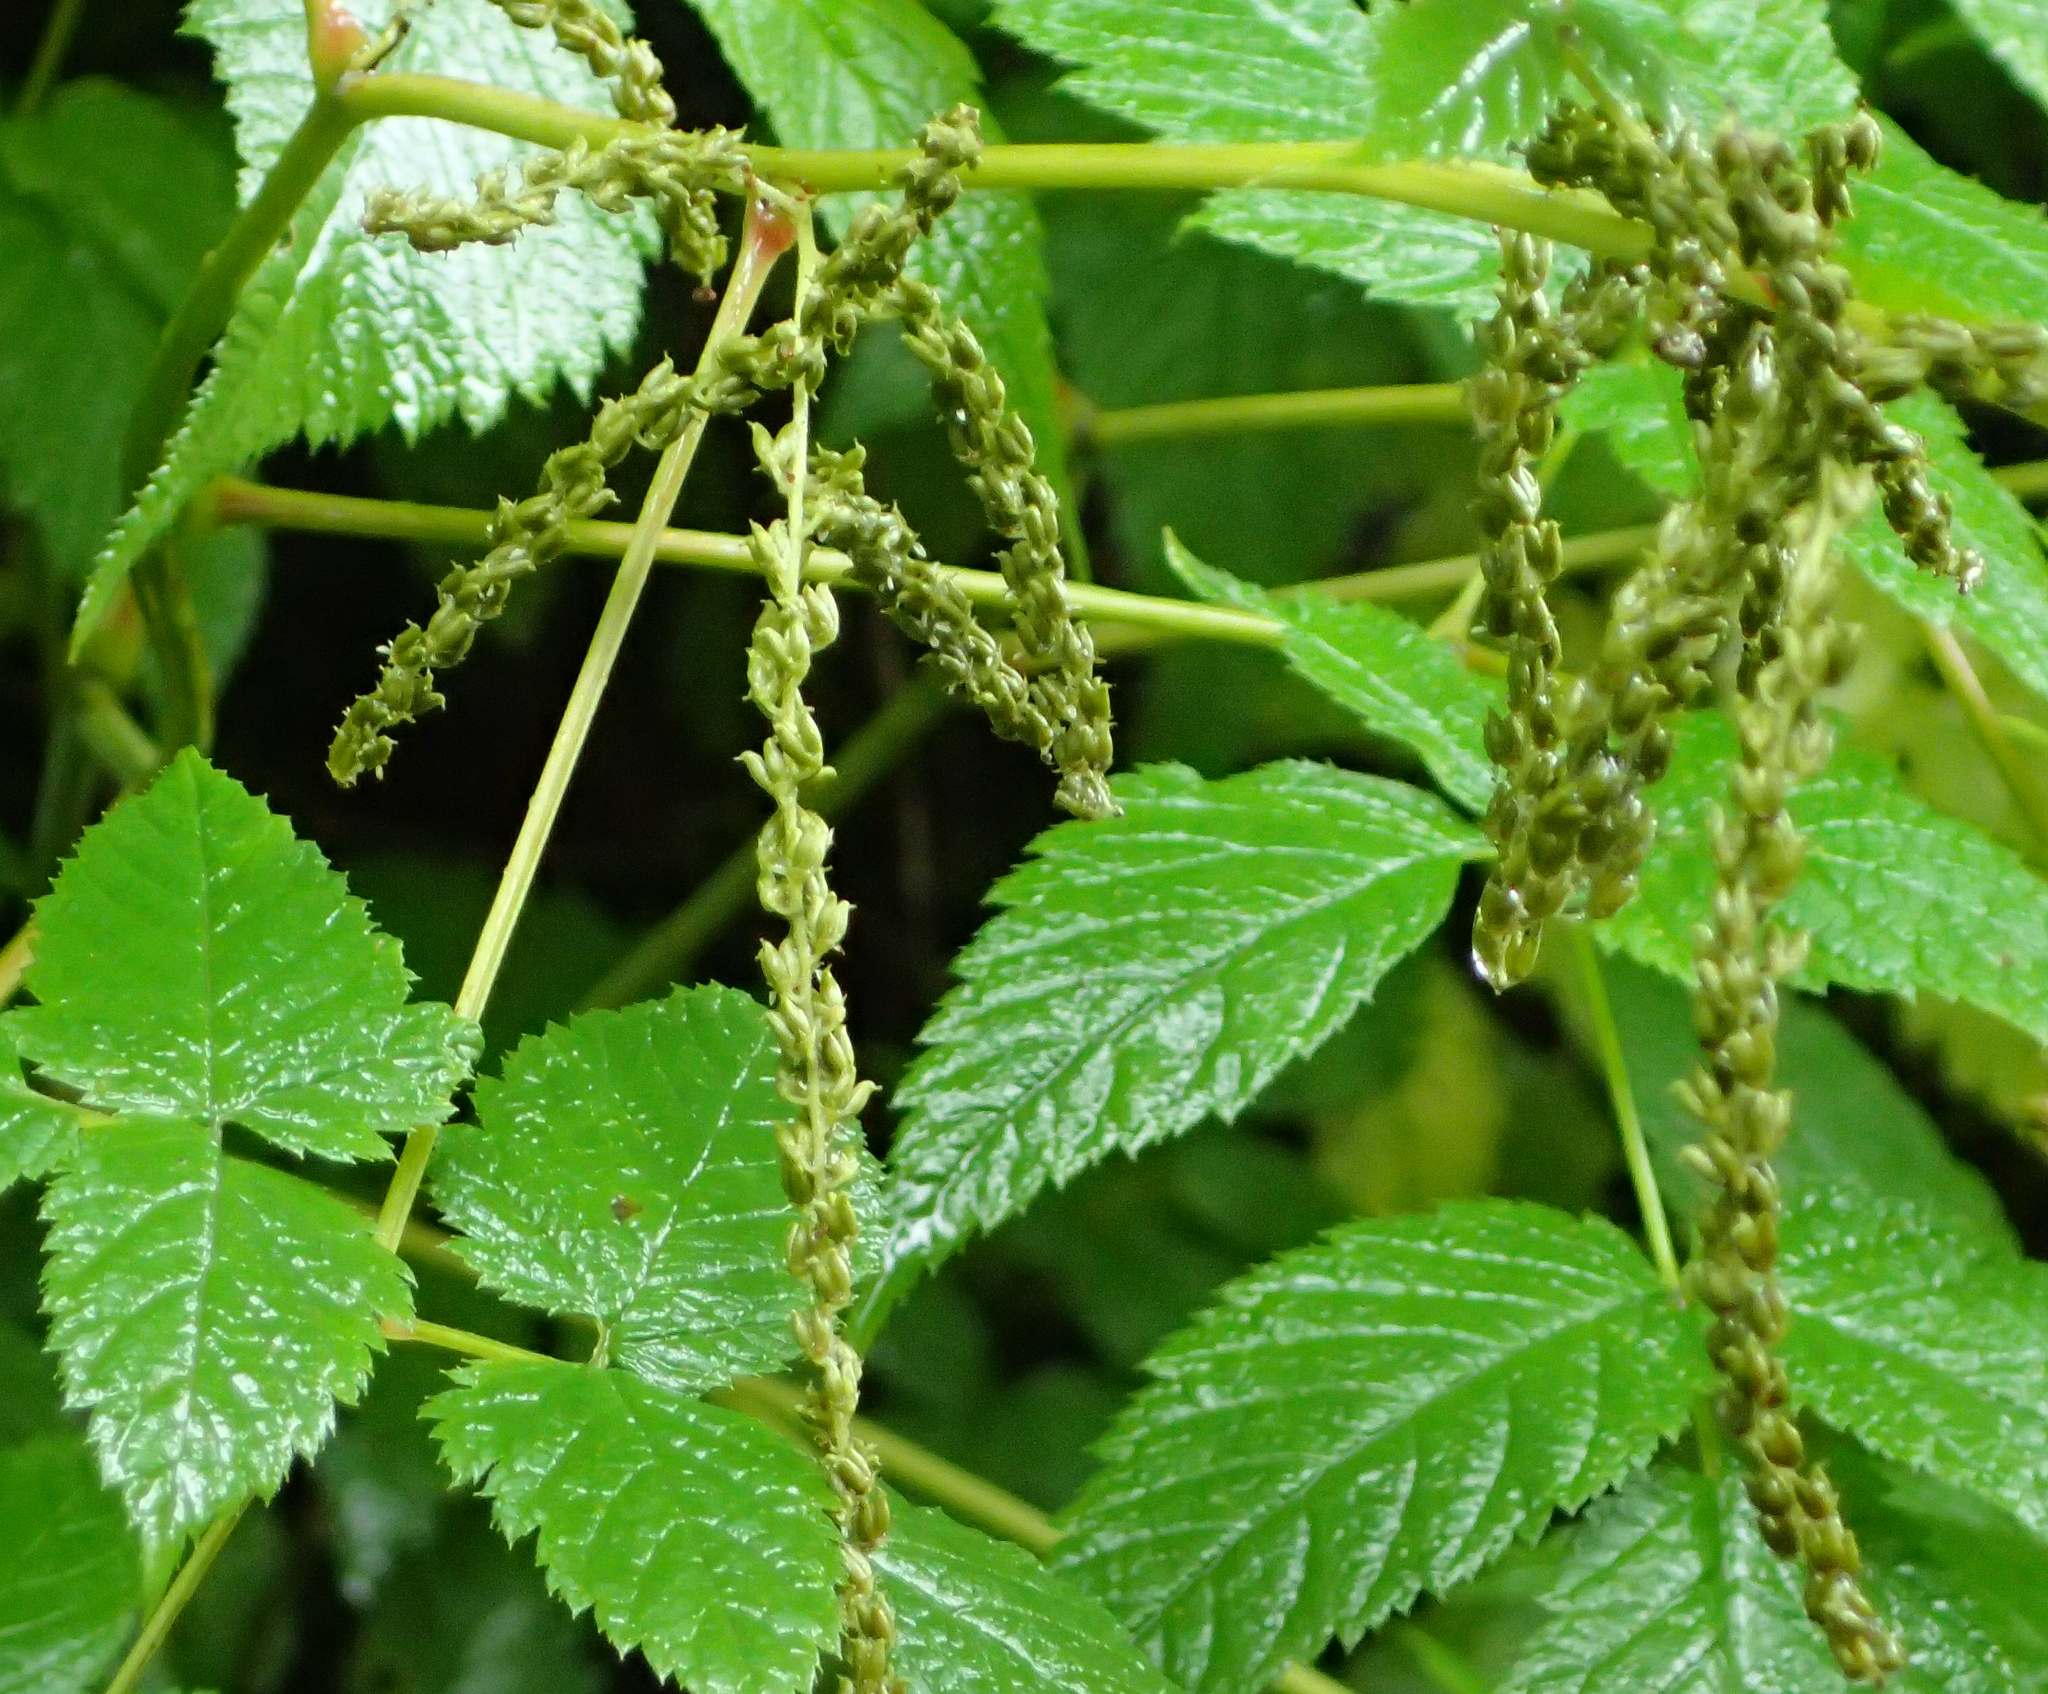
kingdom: Plantae
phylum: Tracheophyta
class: Magnoliopsida
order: Rosales
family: Rosaceae
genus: Aruncus
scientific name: Aruncus dioicus
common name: Buck's-beard
